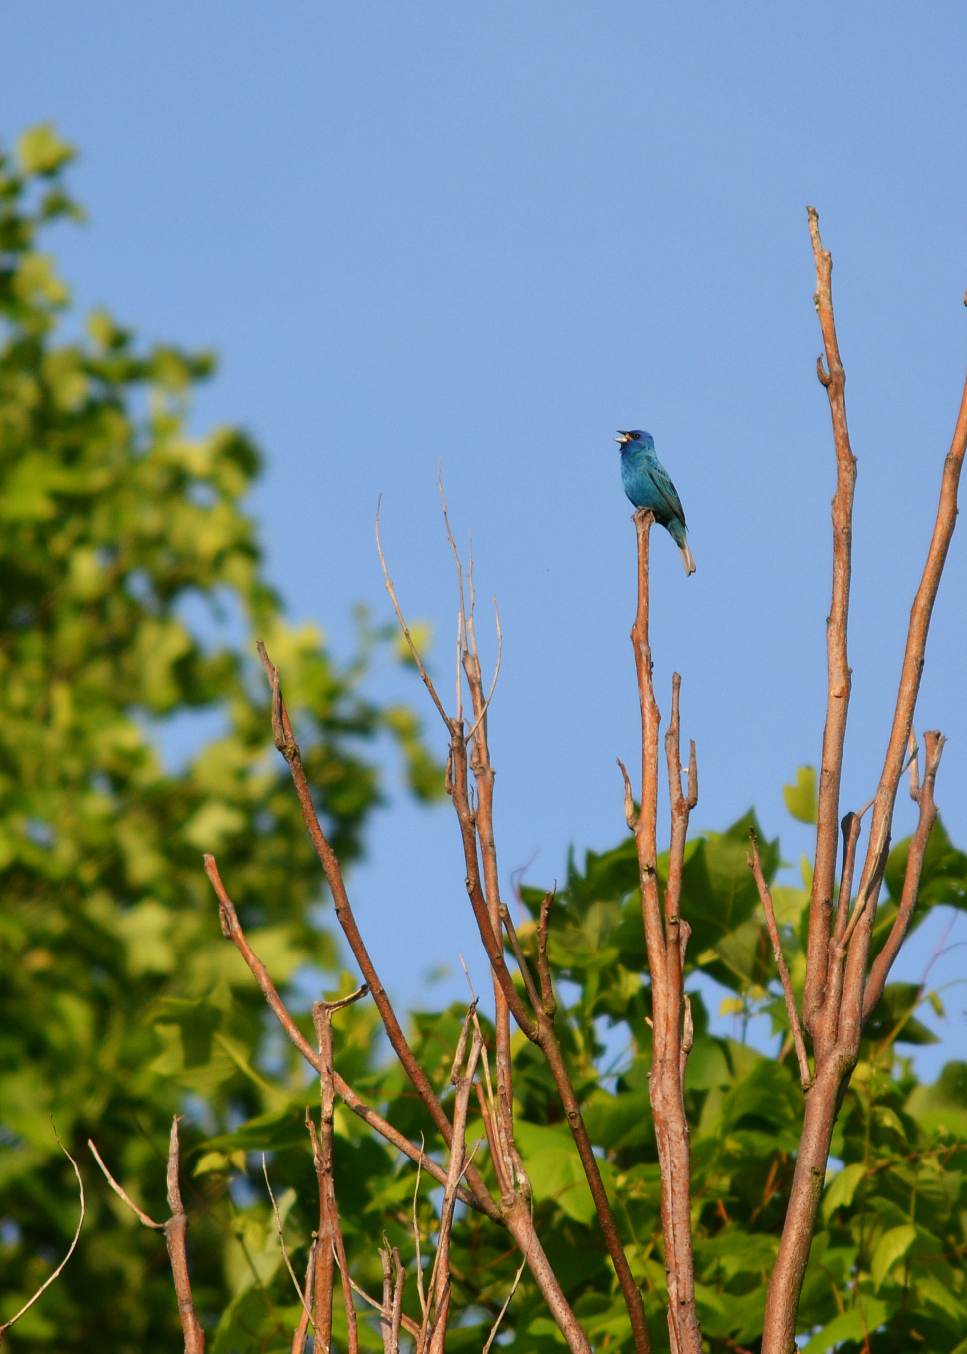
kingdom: Animalia
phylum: Chordata
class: Aves
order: Passeriformes
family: Cardinalidae
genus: Passerina
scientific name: Passerina cyanea
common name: Indigo bunting
